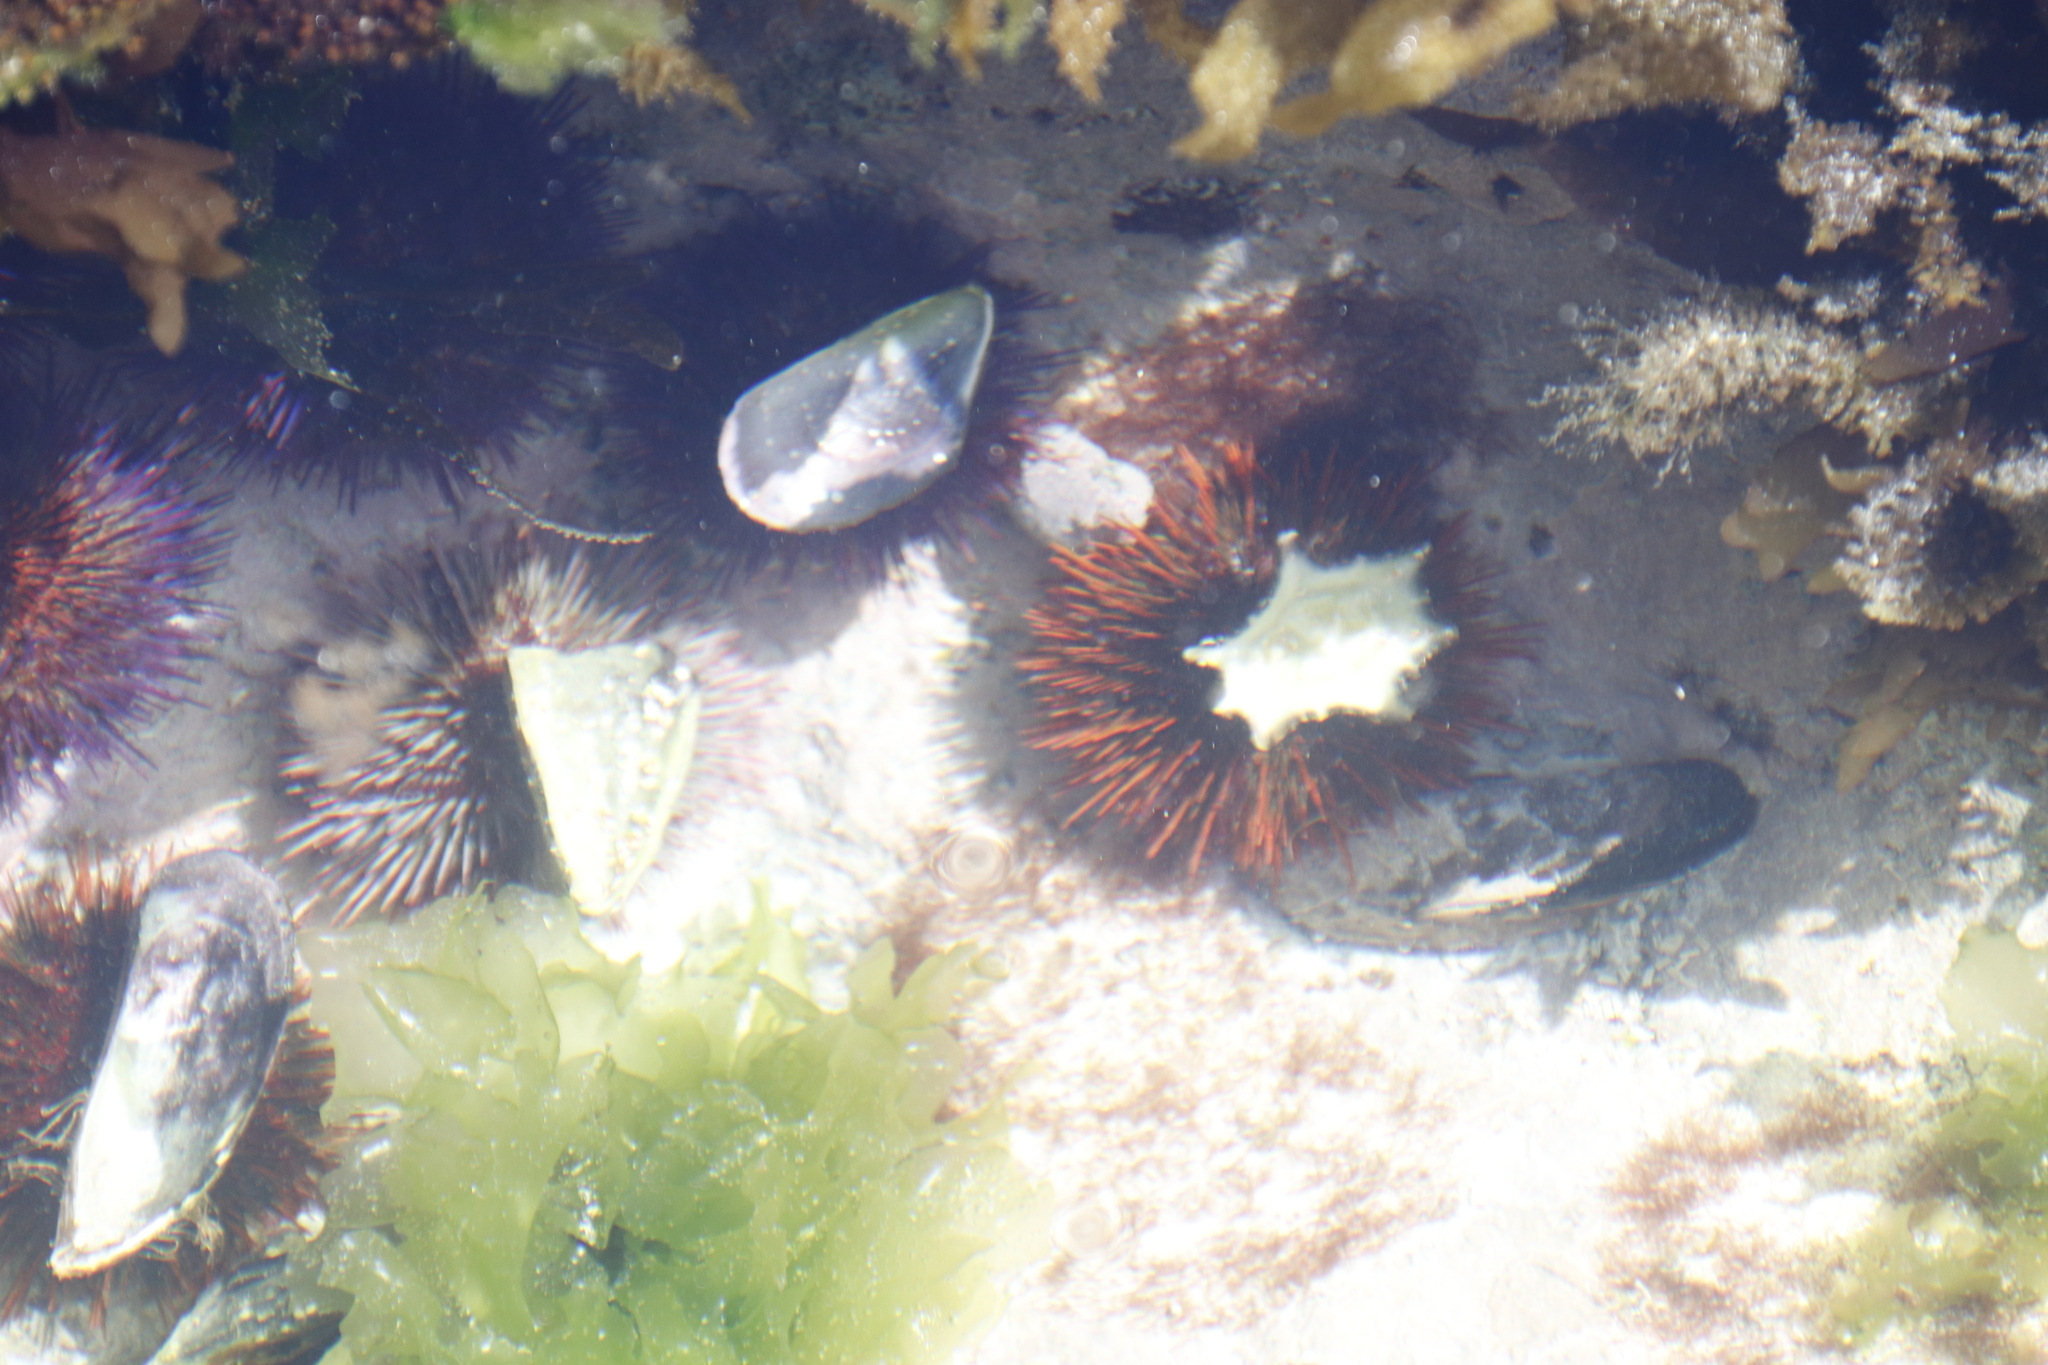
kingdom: Animalia
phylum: Echinodermata
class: Echinoidea
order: Camarodonta
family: Parechinidae
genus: Parechinus
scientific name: Parechinus angulosus
